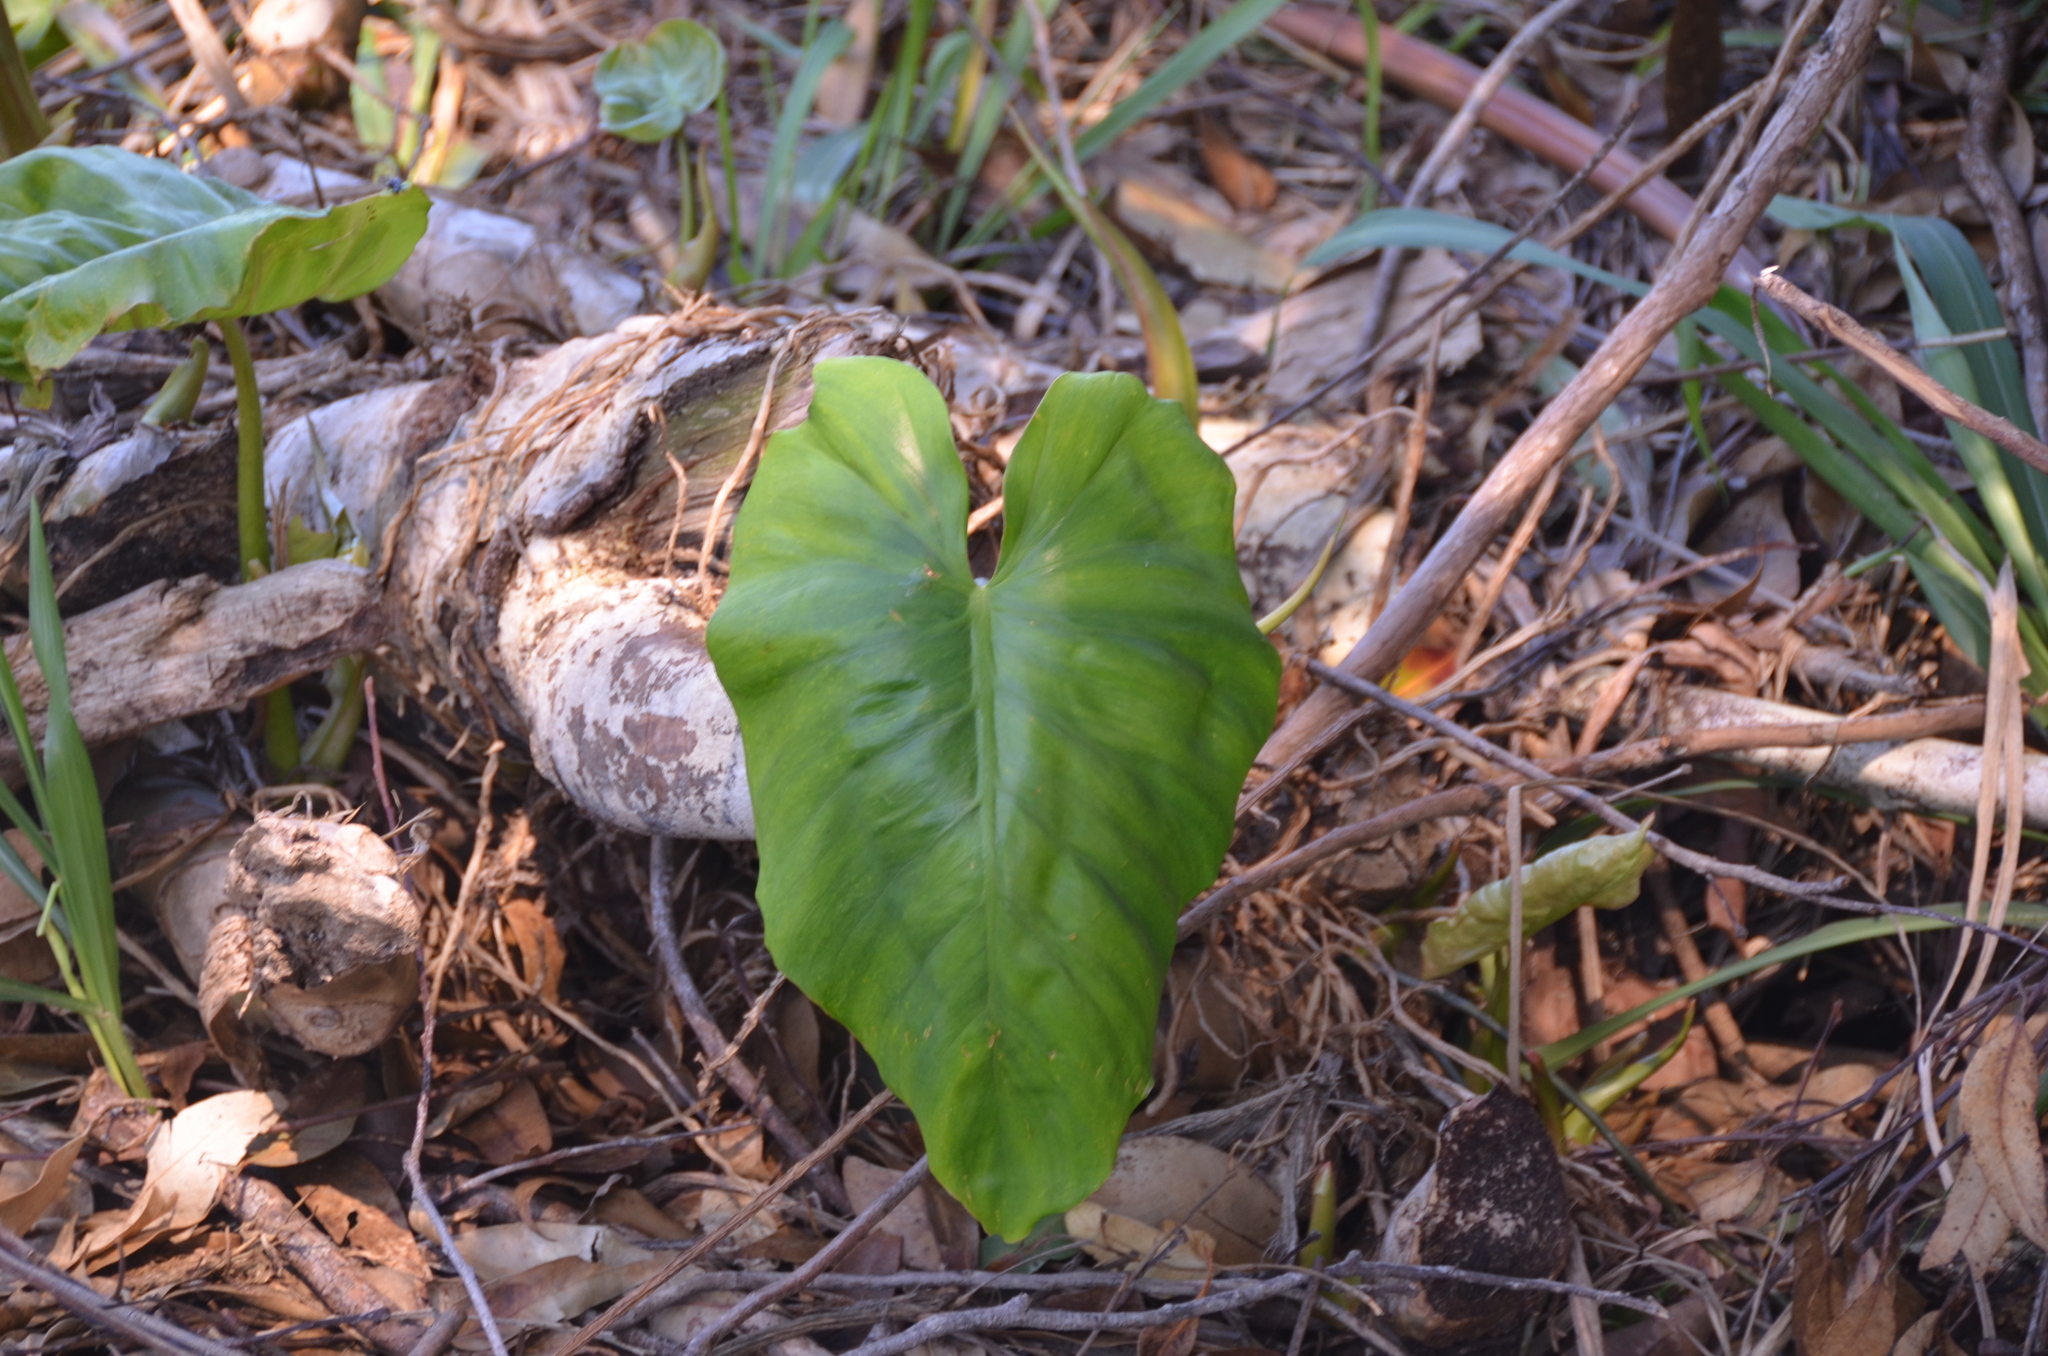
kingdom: Plantae
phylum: Tracheophyta
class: Liliopsida
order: Alismatales
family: Araceae
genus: Alocasia
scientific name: Alocasia macrorrhizos
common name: Giant taro
